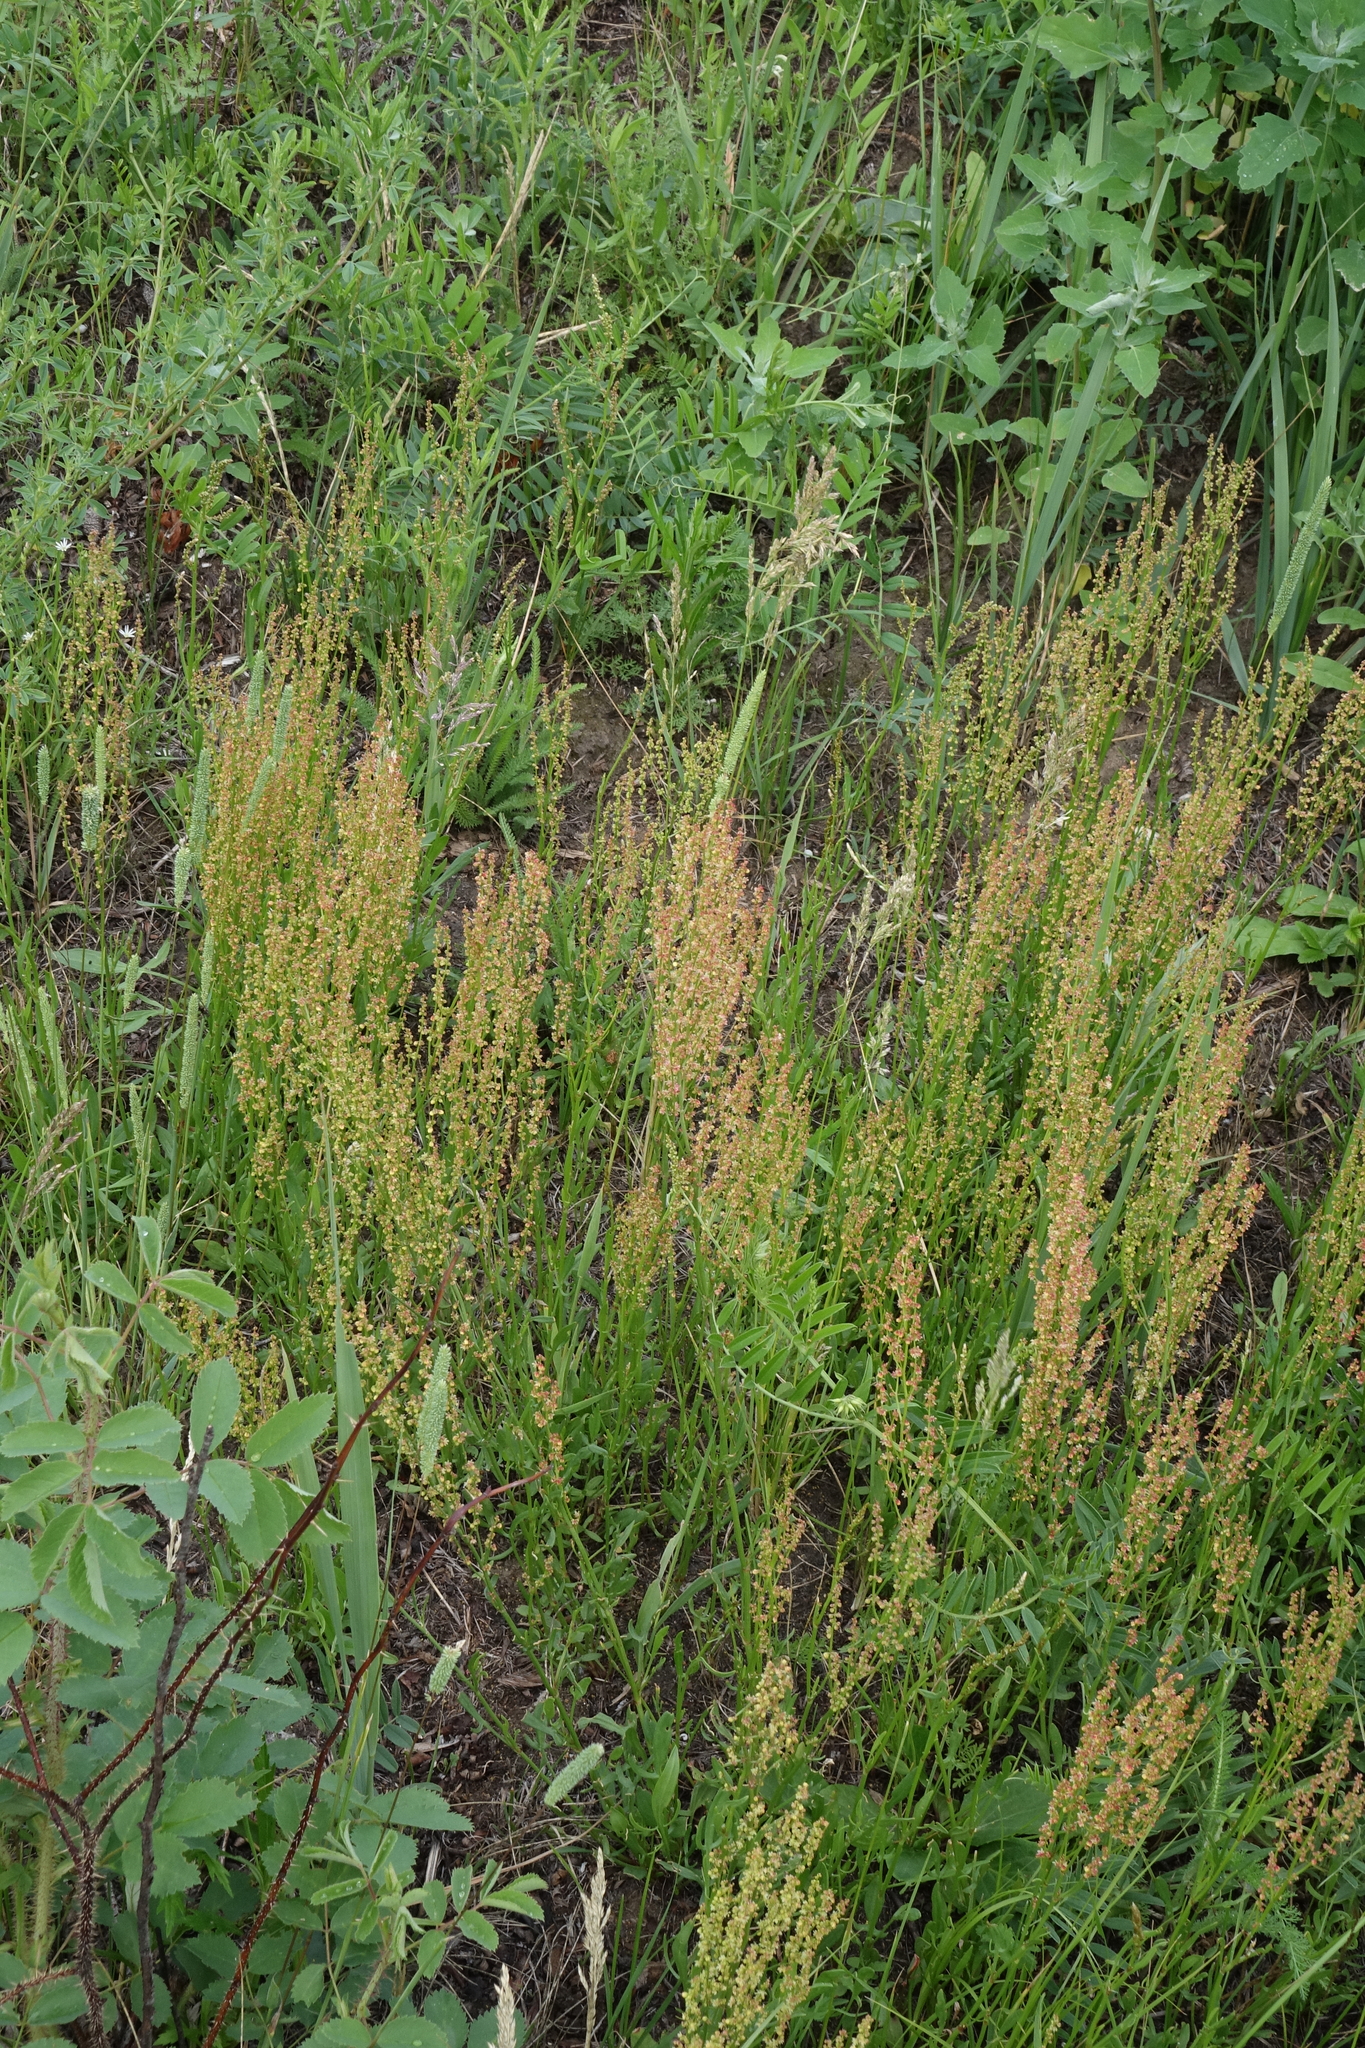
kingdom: Plantae
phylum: Tracheophyta
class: Magnoliopsida
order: Caryophyllales
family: Polygonaceae
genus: Rumex
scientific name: Rumex acetosella
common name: Common sheep sorrel
